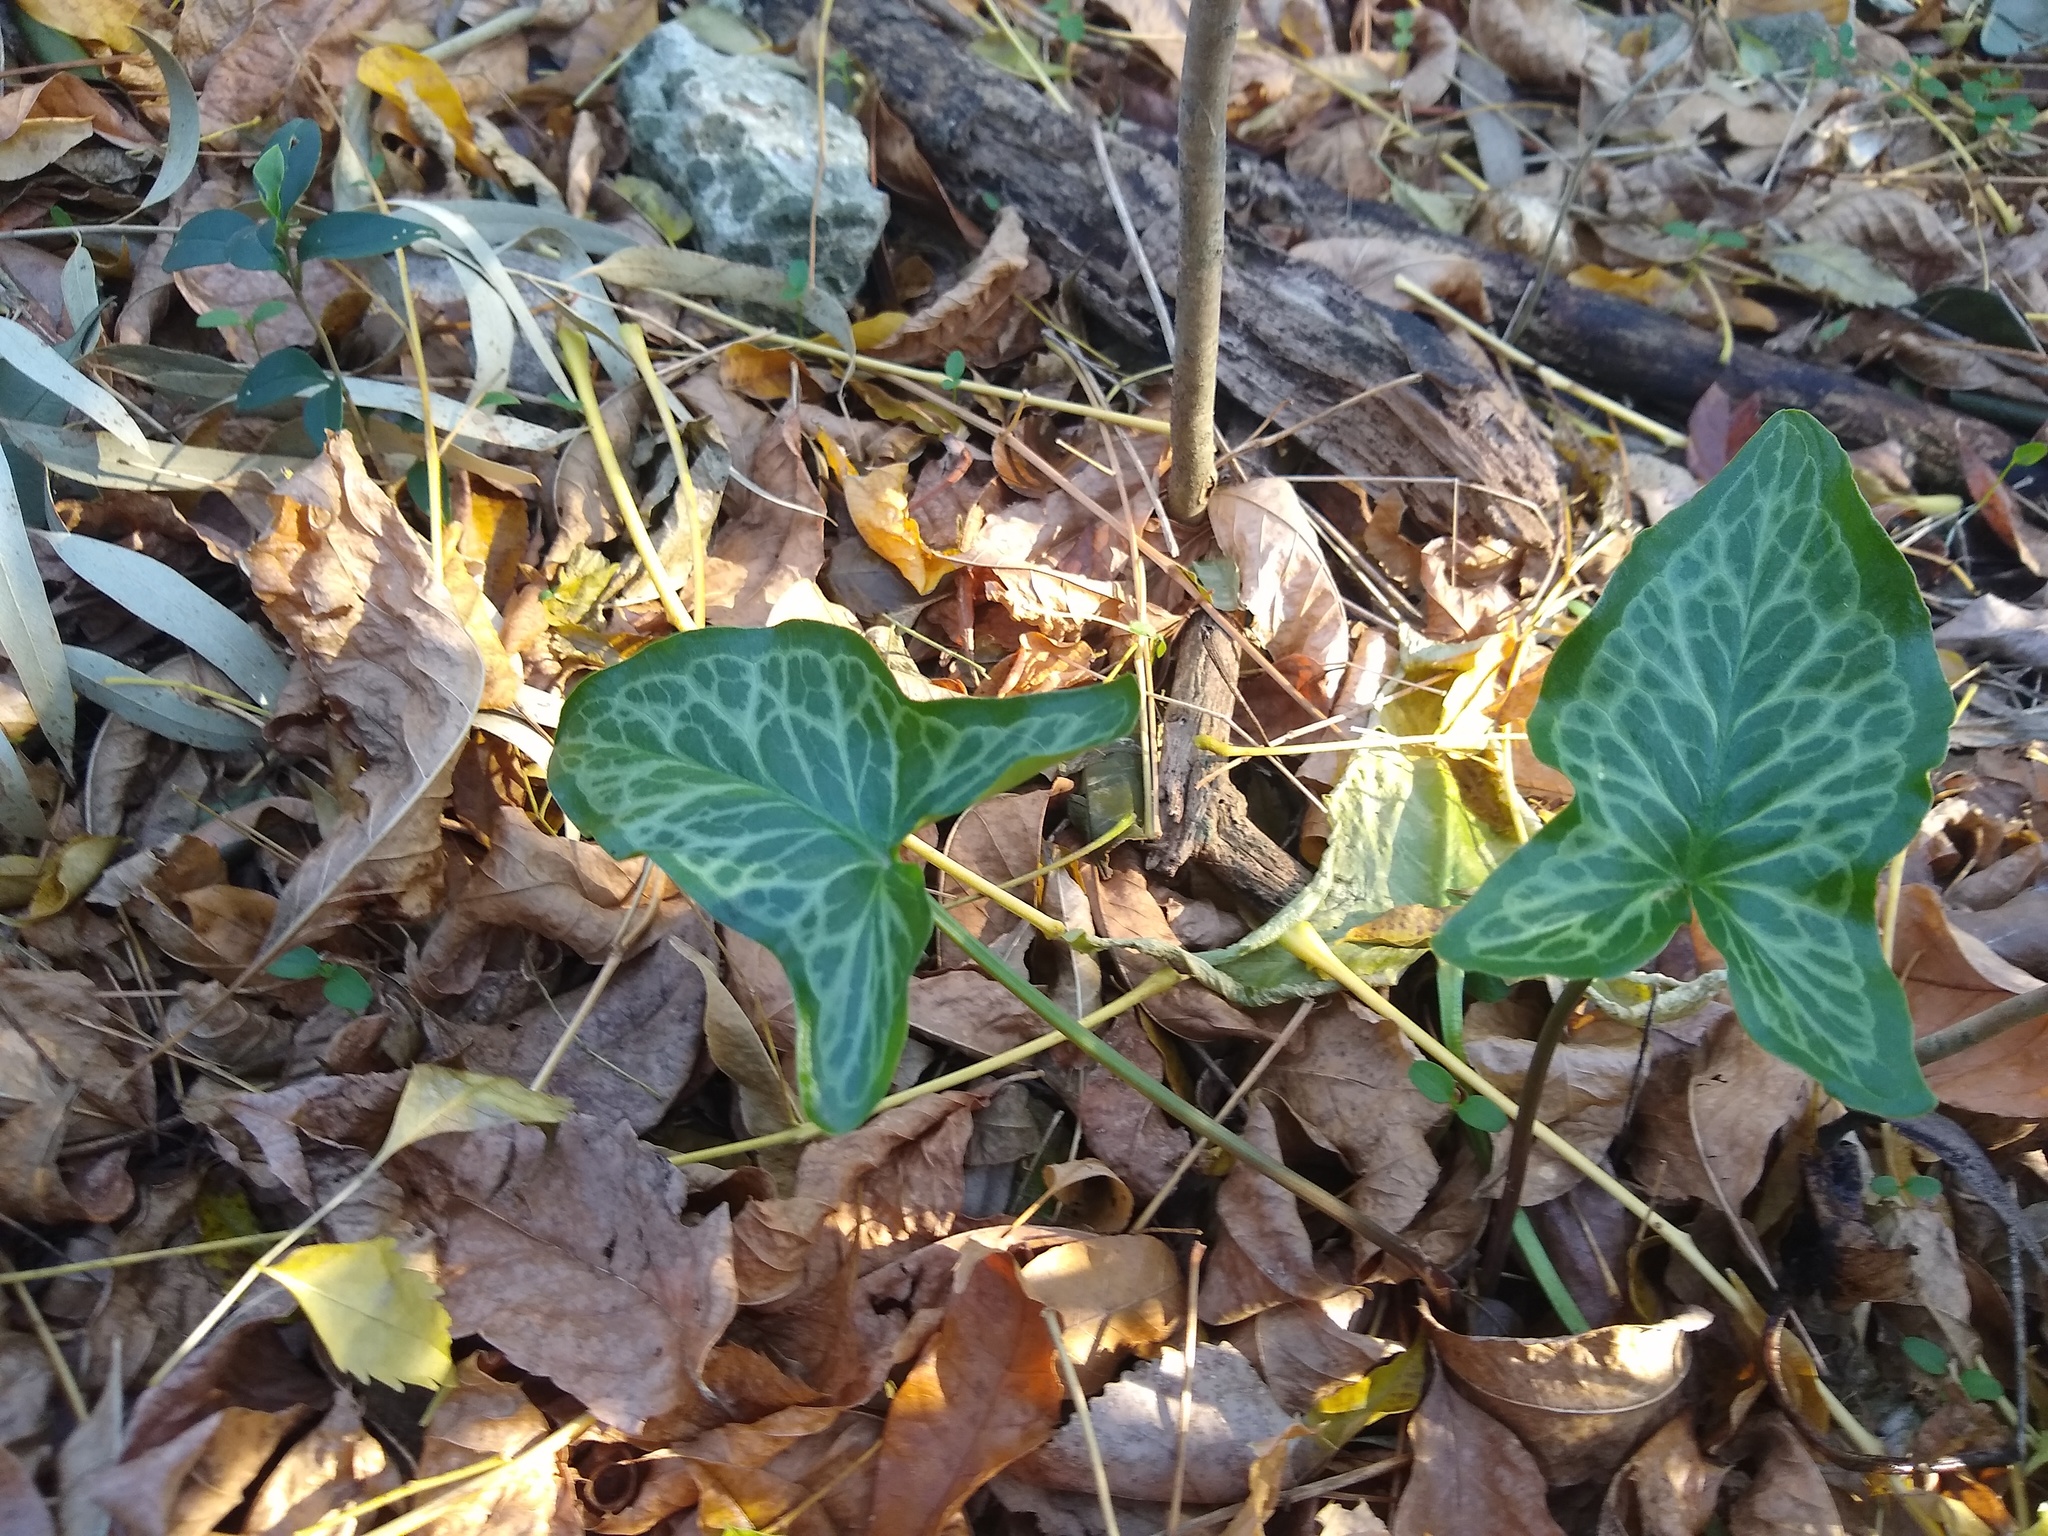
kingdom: Plantae
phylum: Tracheophyta
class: Liliopsida
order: Alismatales
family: Araceae
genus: Arum
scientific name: Arum italicum
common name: Italian lords-and-ladies
